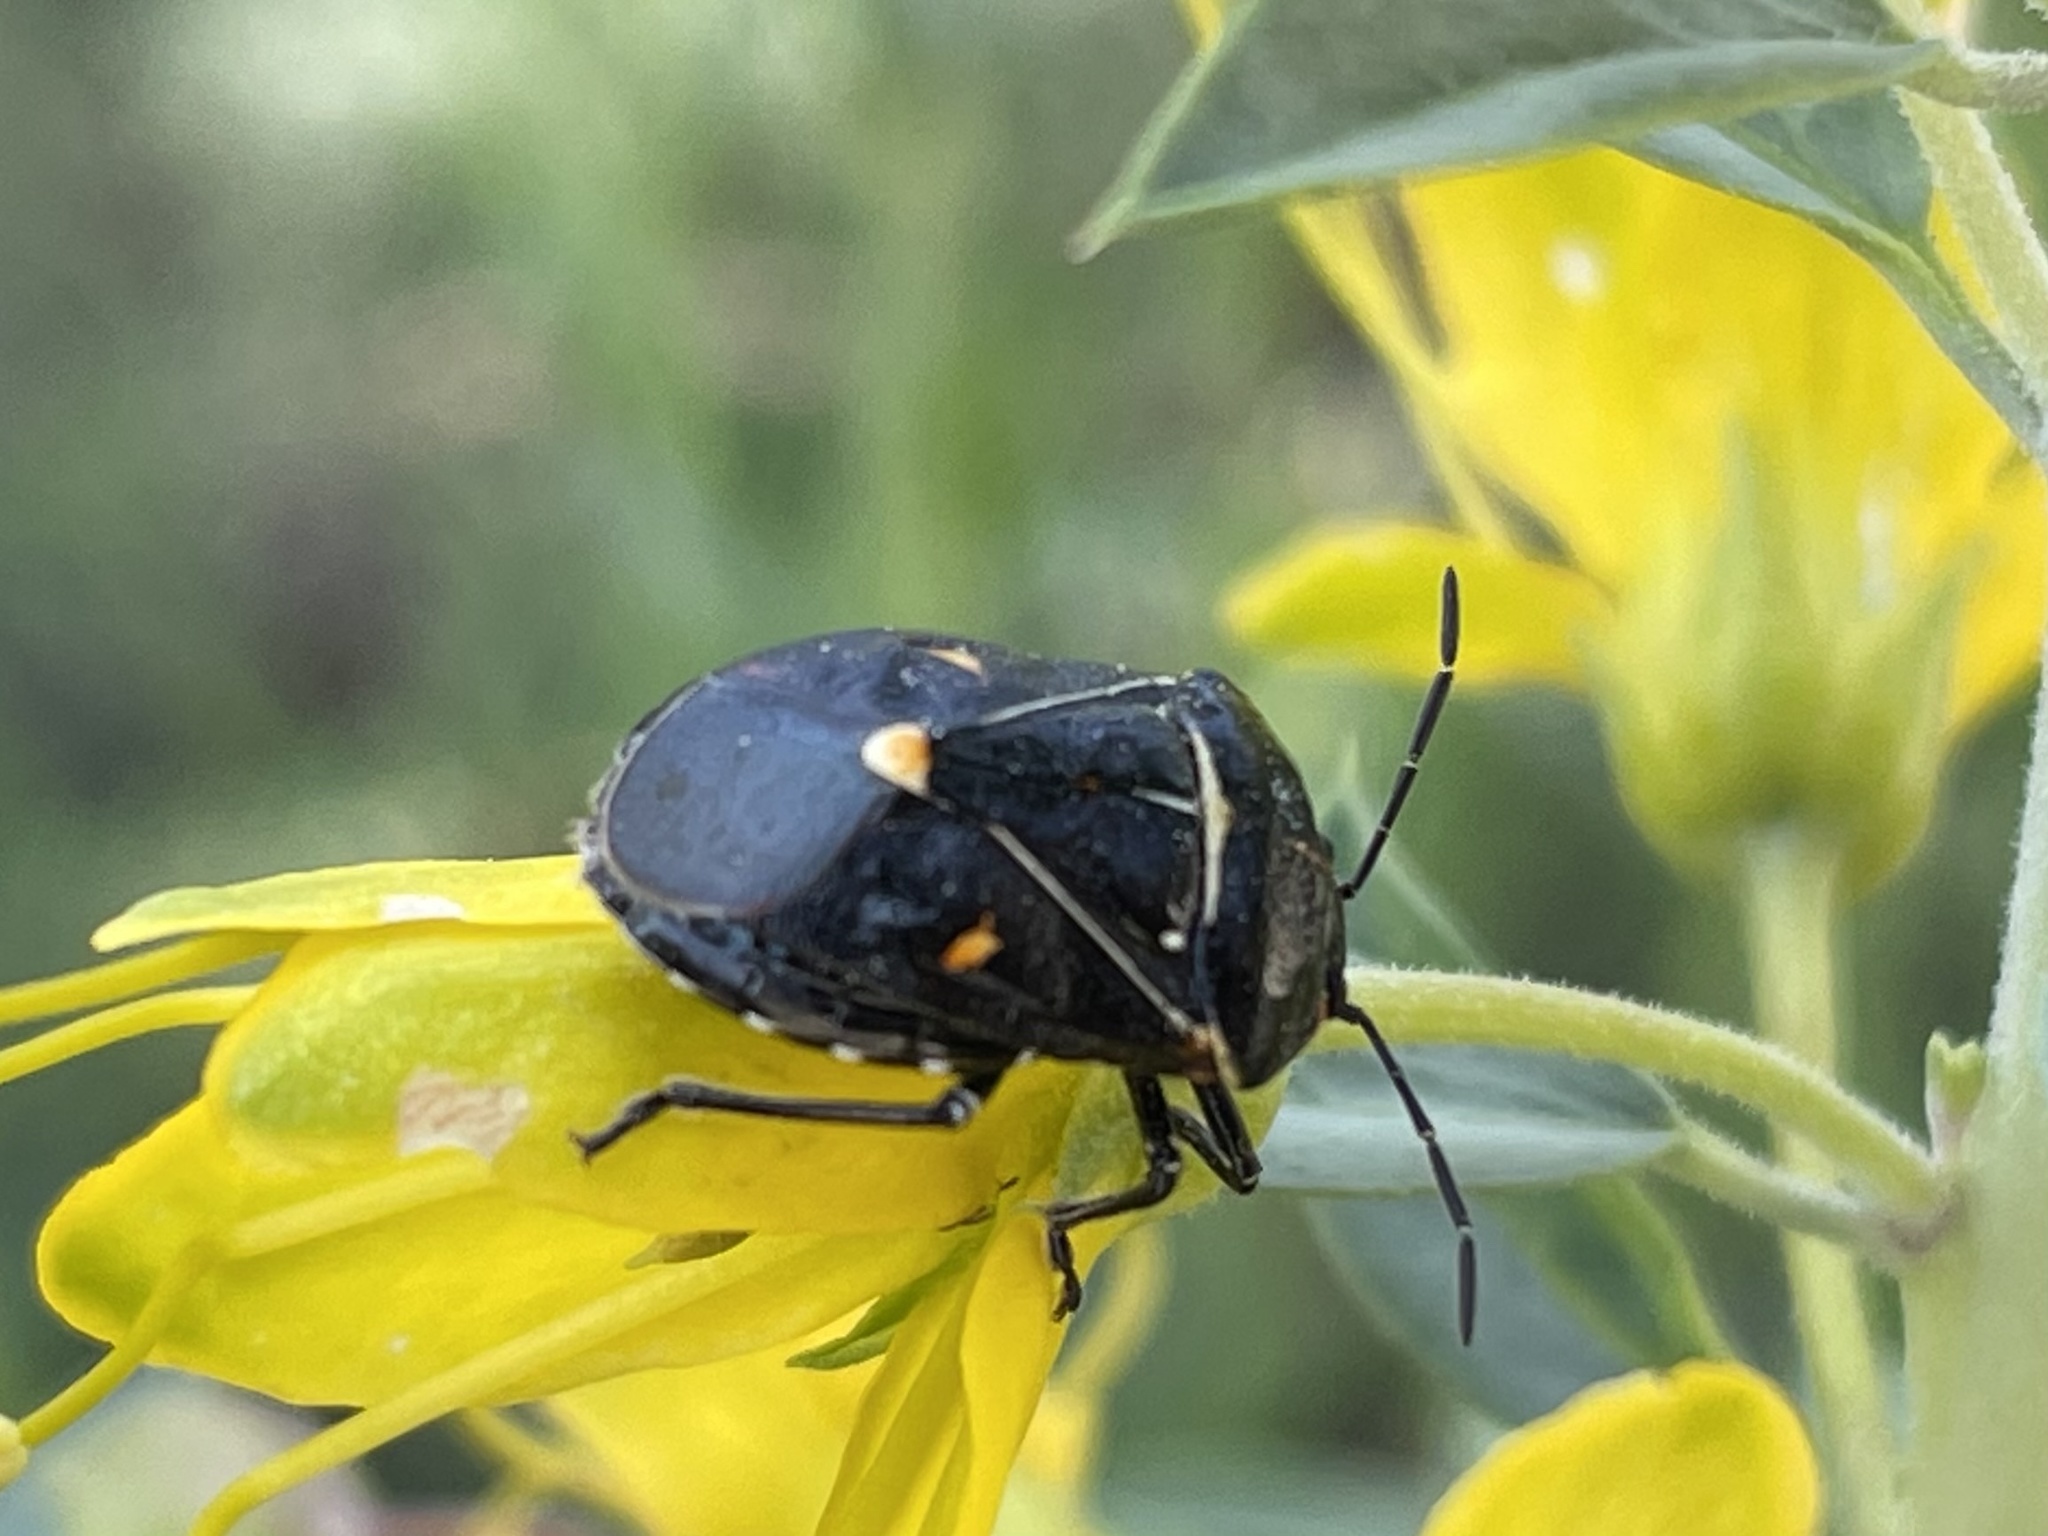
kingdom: Animalia
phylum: Arthropoda
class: Insecta
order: Hemiptera
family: Pentatomidae
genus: Murgantia
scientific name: Murgantia histrionica
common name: Harlequin bug
